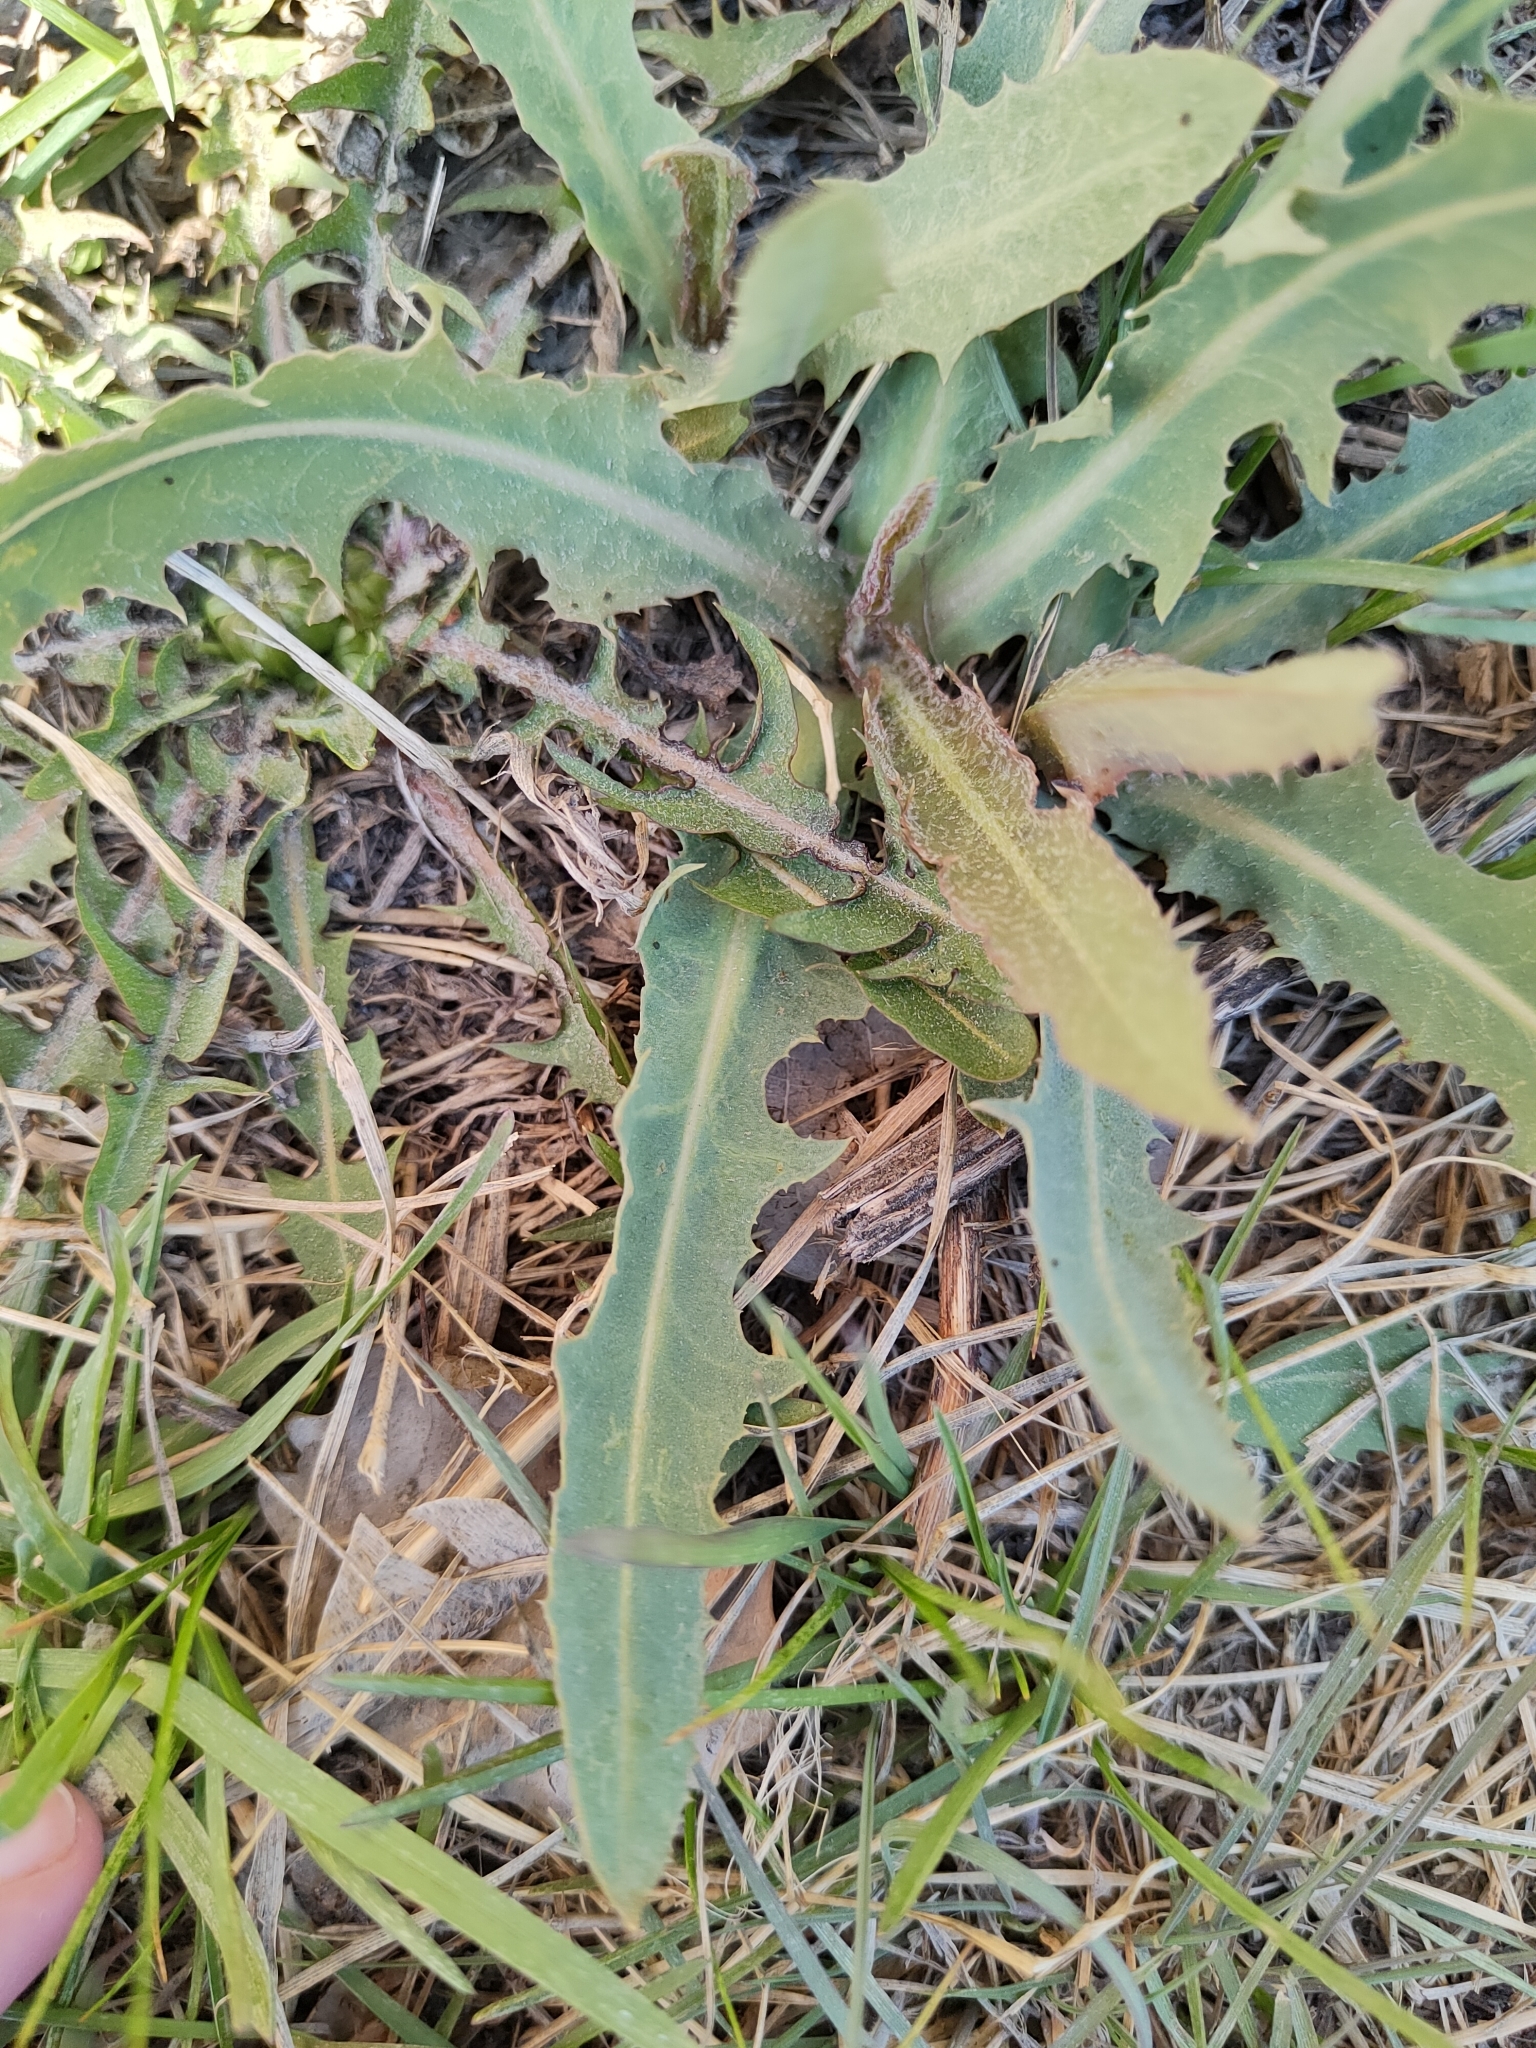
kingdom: Plantae
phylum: Tracheophyta
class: Magnoliopsida
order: Asterales
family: Asteraceae
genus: Lactuca
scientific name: Lactuca tatarica
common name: Blue lettuce
